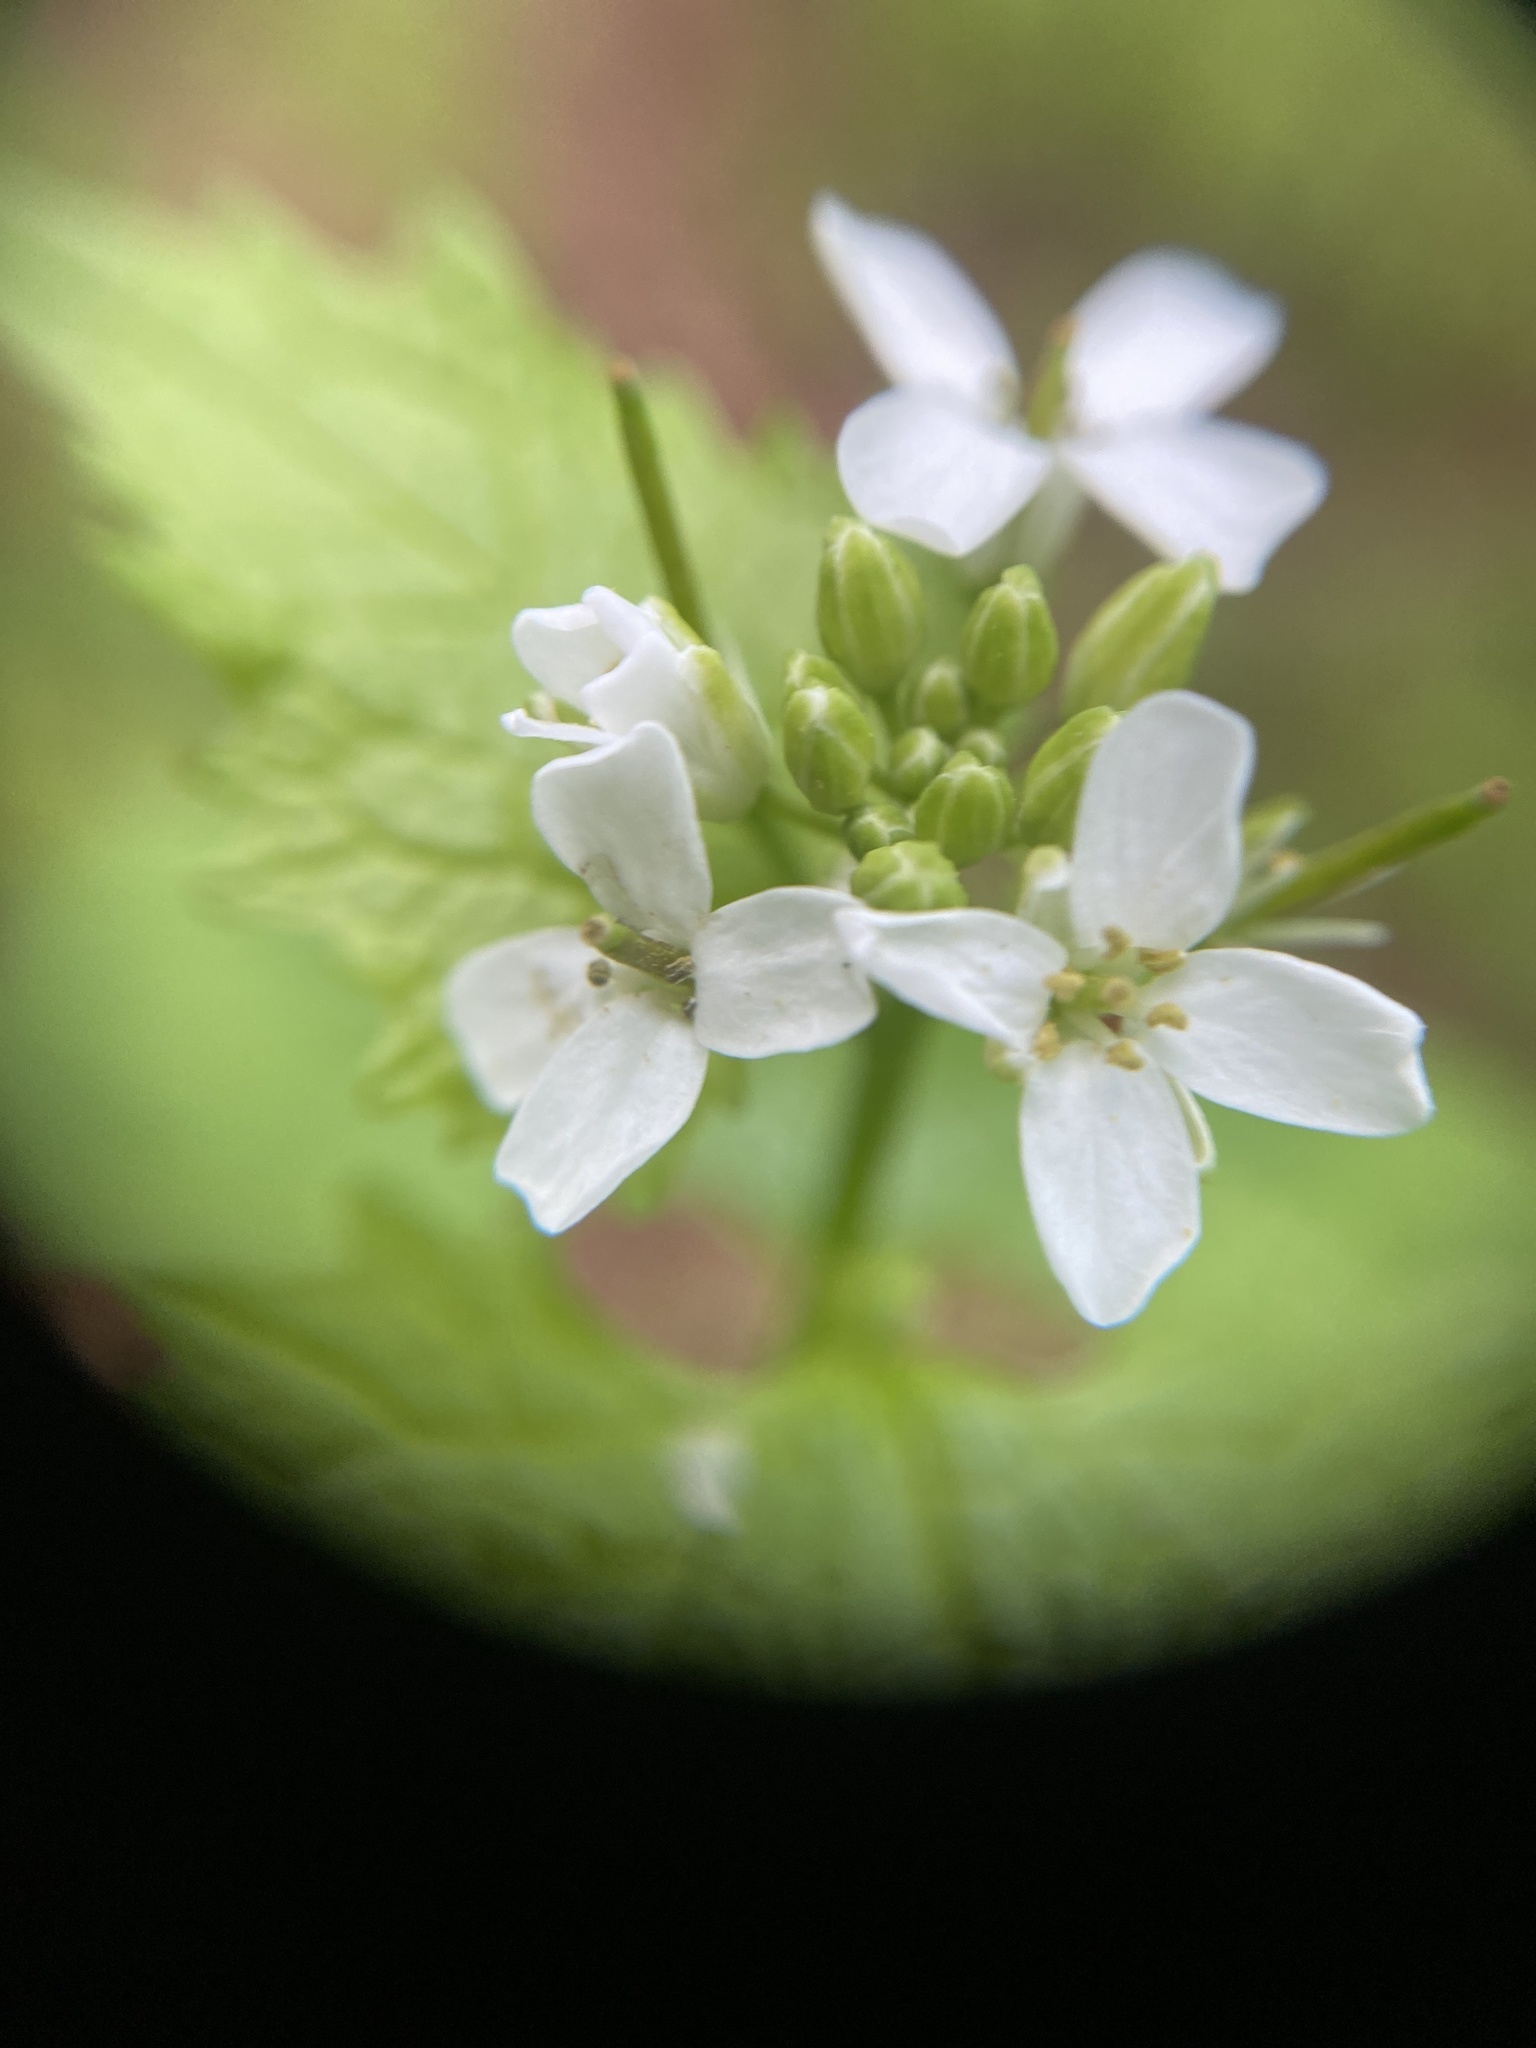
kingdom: Plantae
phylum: Tracheophyta
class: Magnoliopsida
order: Brassicales
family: Brassicaceae
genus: Alliaria
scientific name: Alliaria petiolata
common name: Garlic mustard
